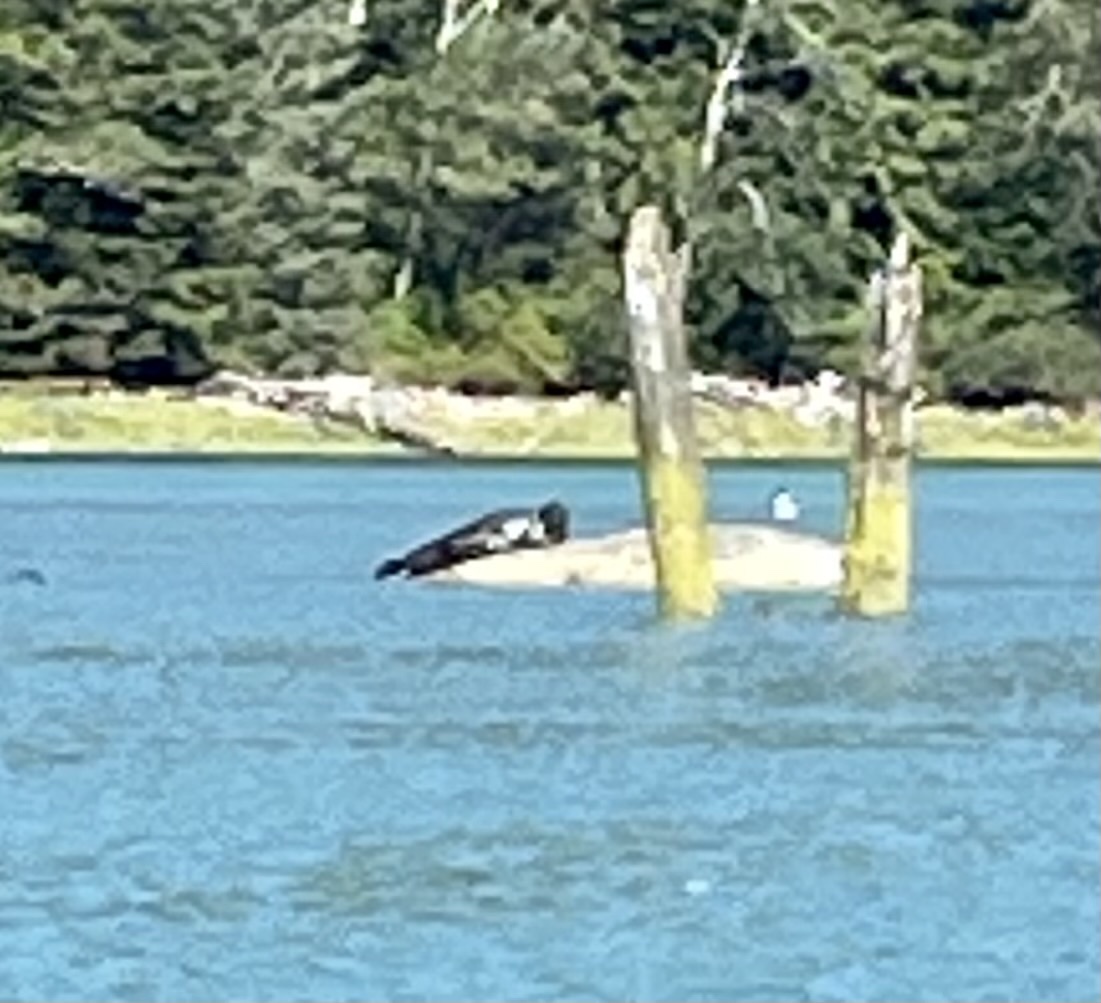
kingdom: Animalia
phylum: Chordata
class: Mammalia
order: Carnivora
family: Phocidae
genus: Phoca
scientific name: Phoca vitulina
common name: Harbor seal
